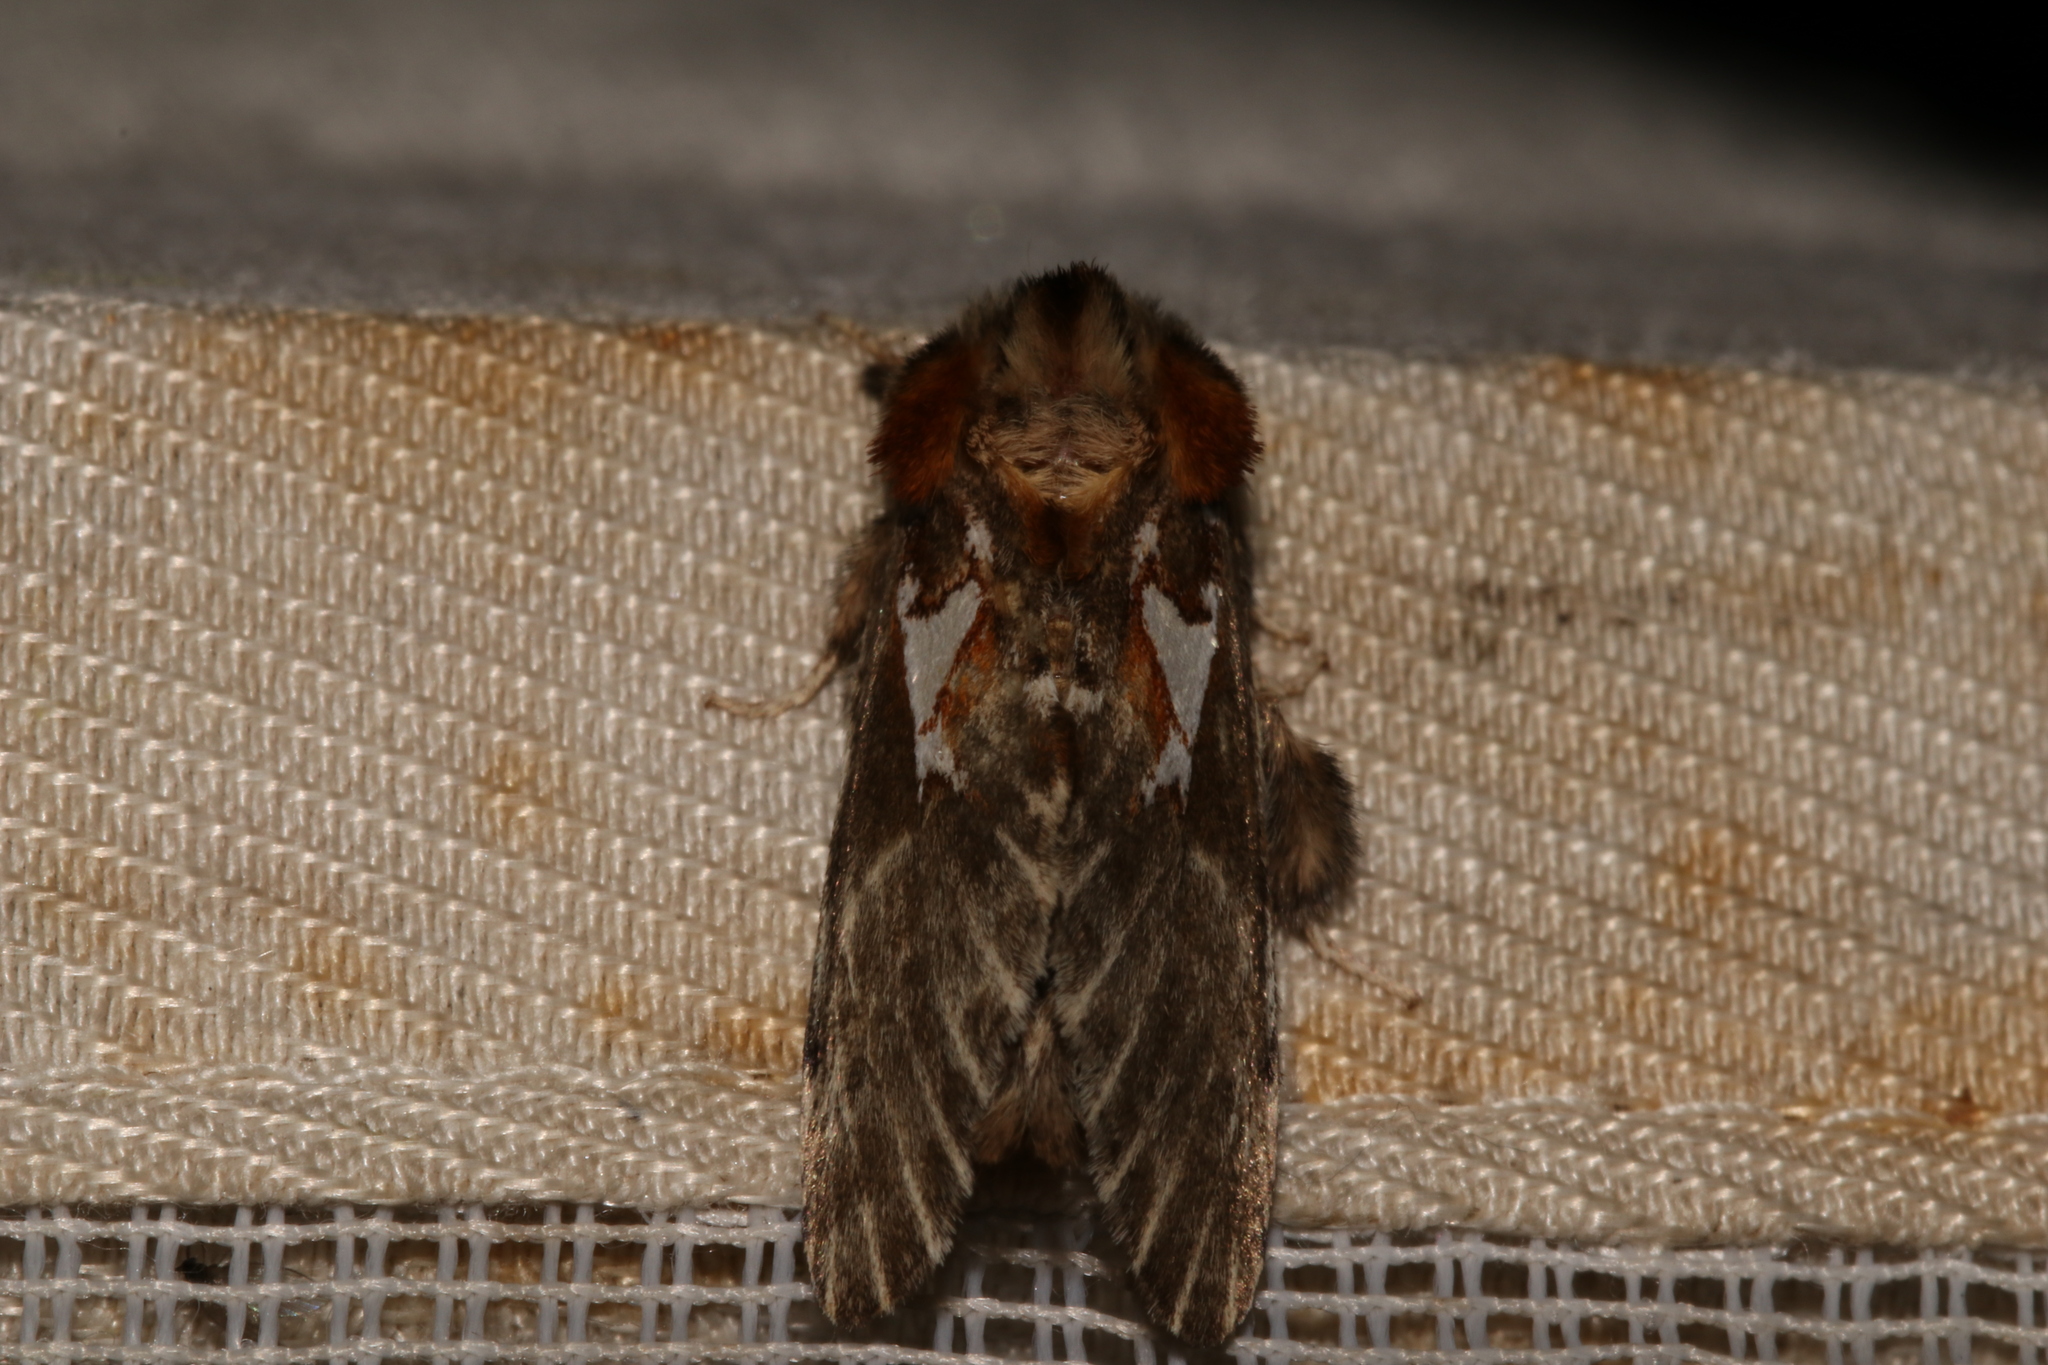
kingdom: Animalia
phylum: Arthropoda
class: Insecta
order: Lepidoptera
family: Notodontidae
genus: Spatalia
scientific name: Spatalia argentina
